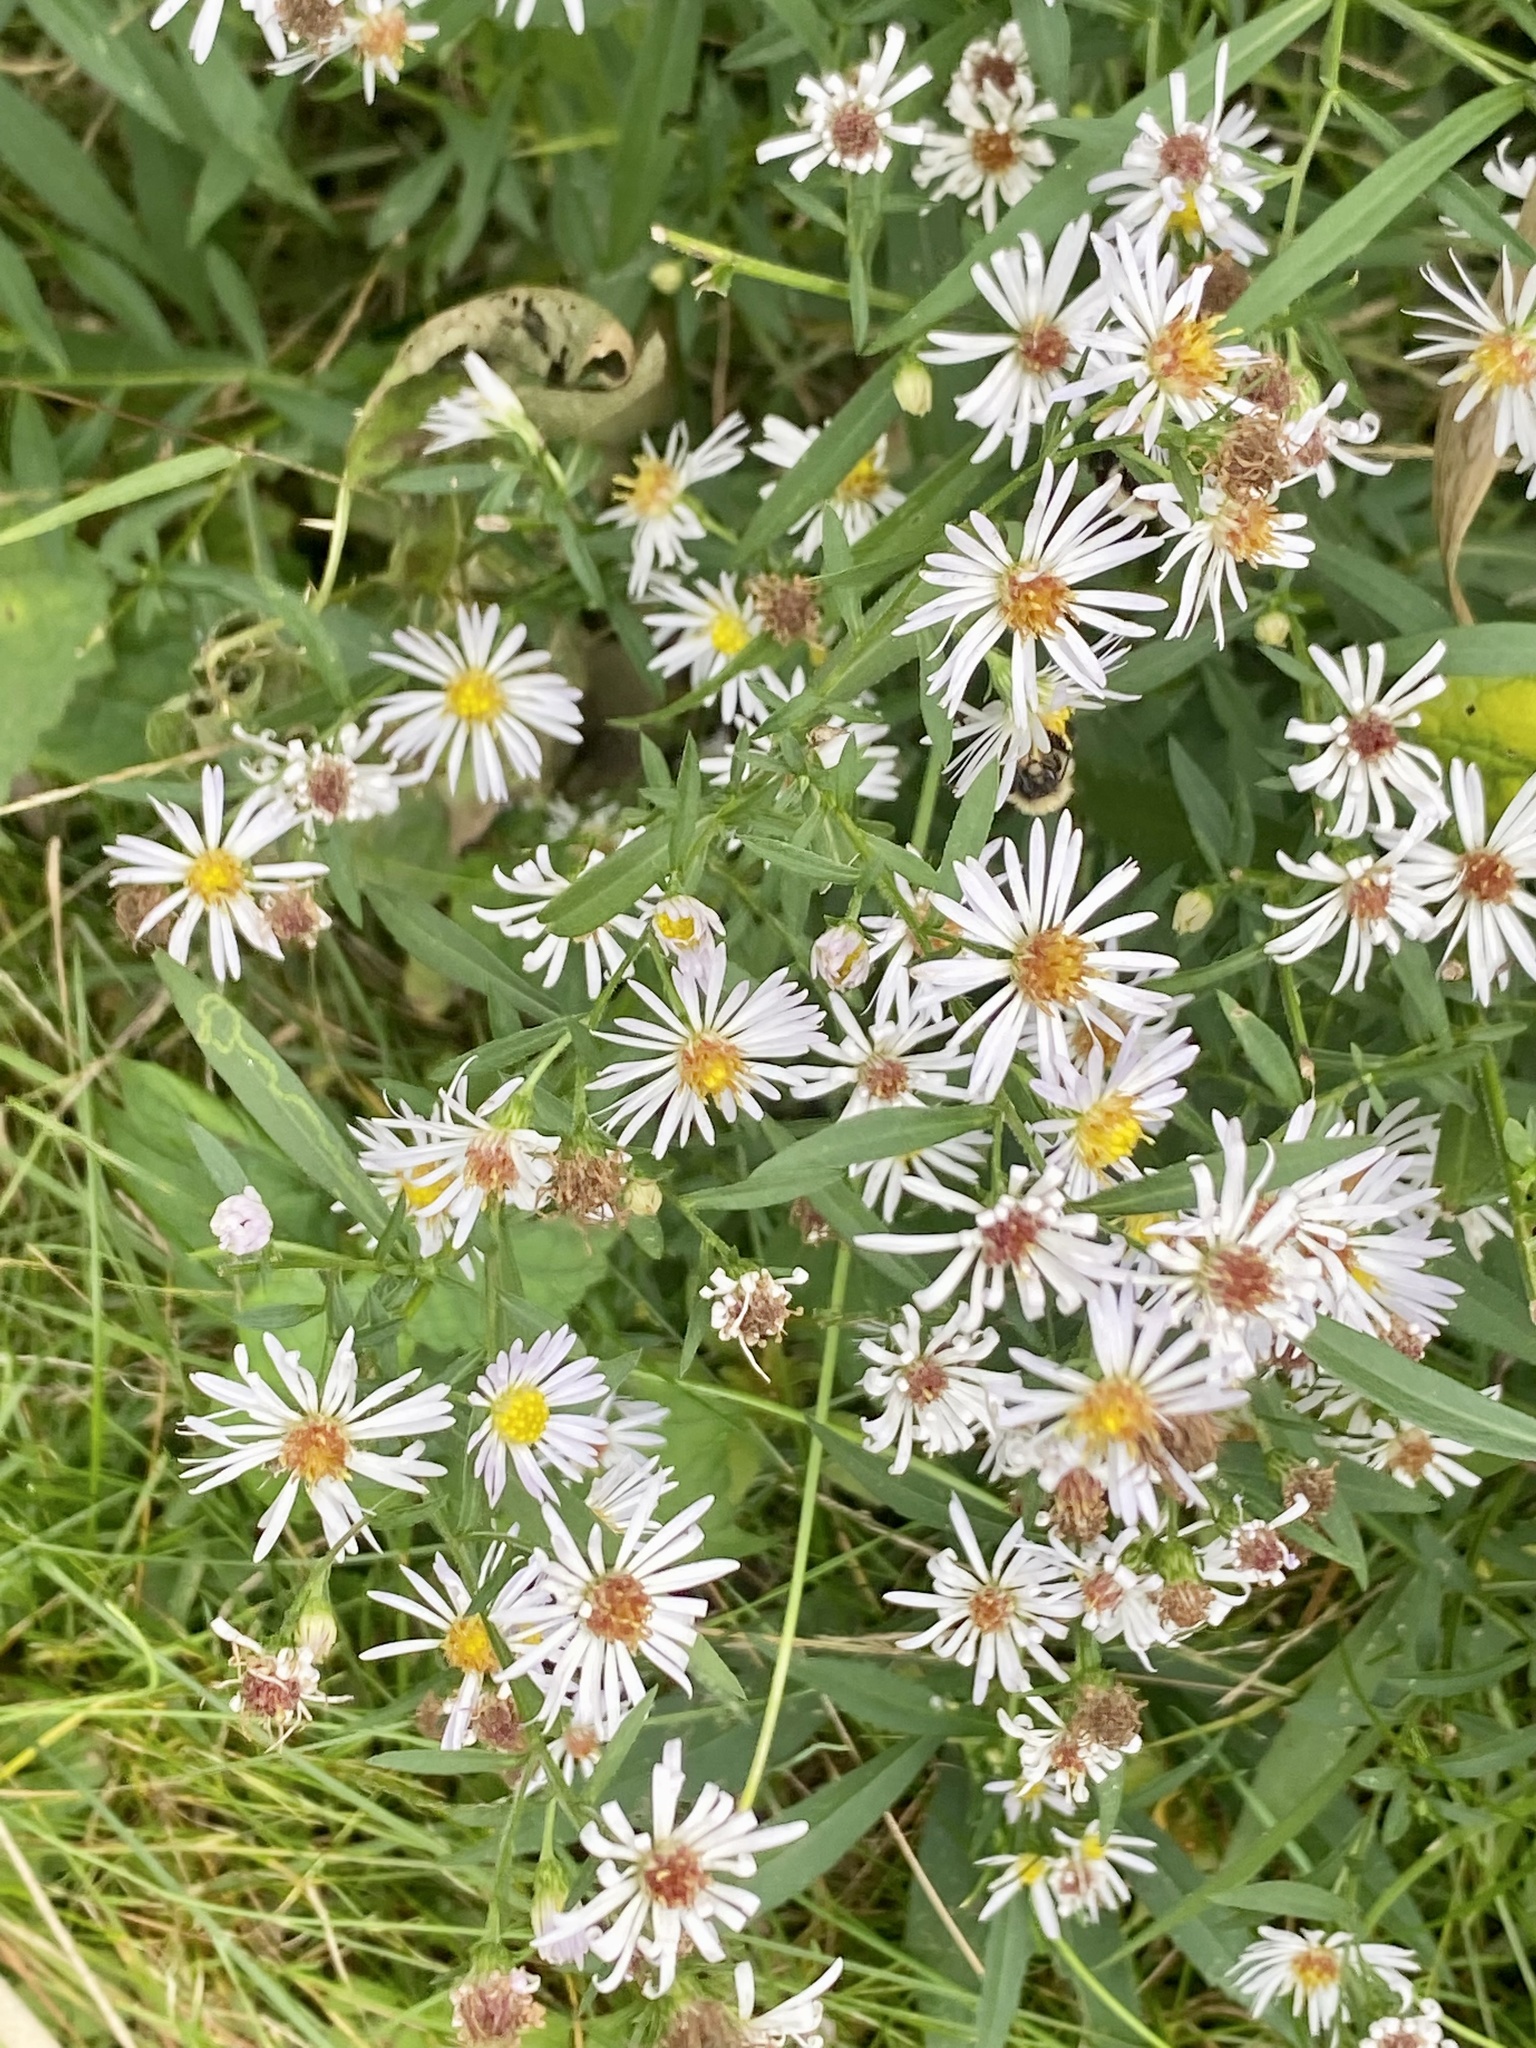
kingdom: Plantae
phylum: Tracheophyta
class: Magnoliopsida
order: Asterales
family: Asteraceae
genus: Symphyotrichum
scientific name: Symphyotrichum lanceolatum
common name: Panicled aster
